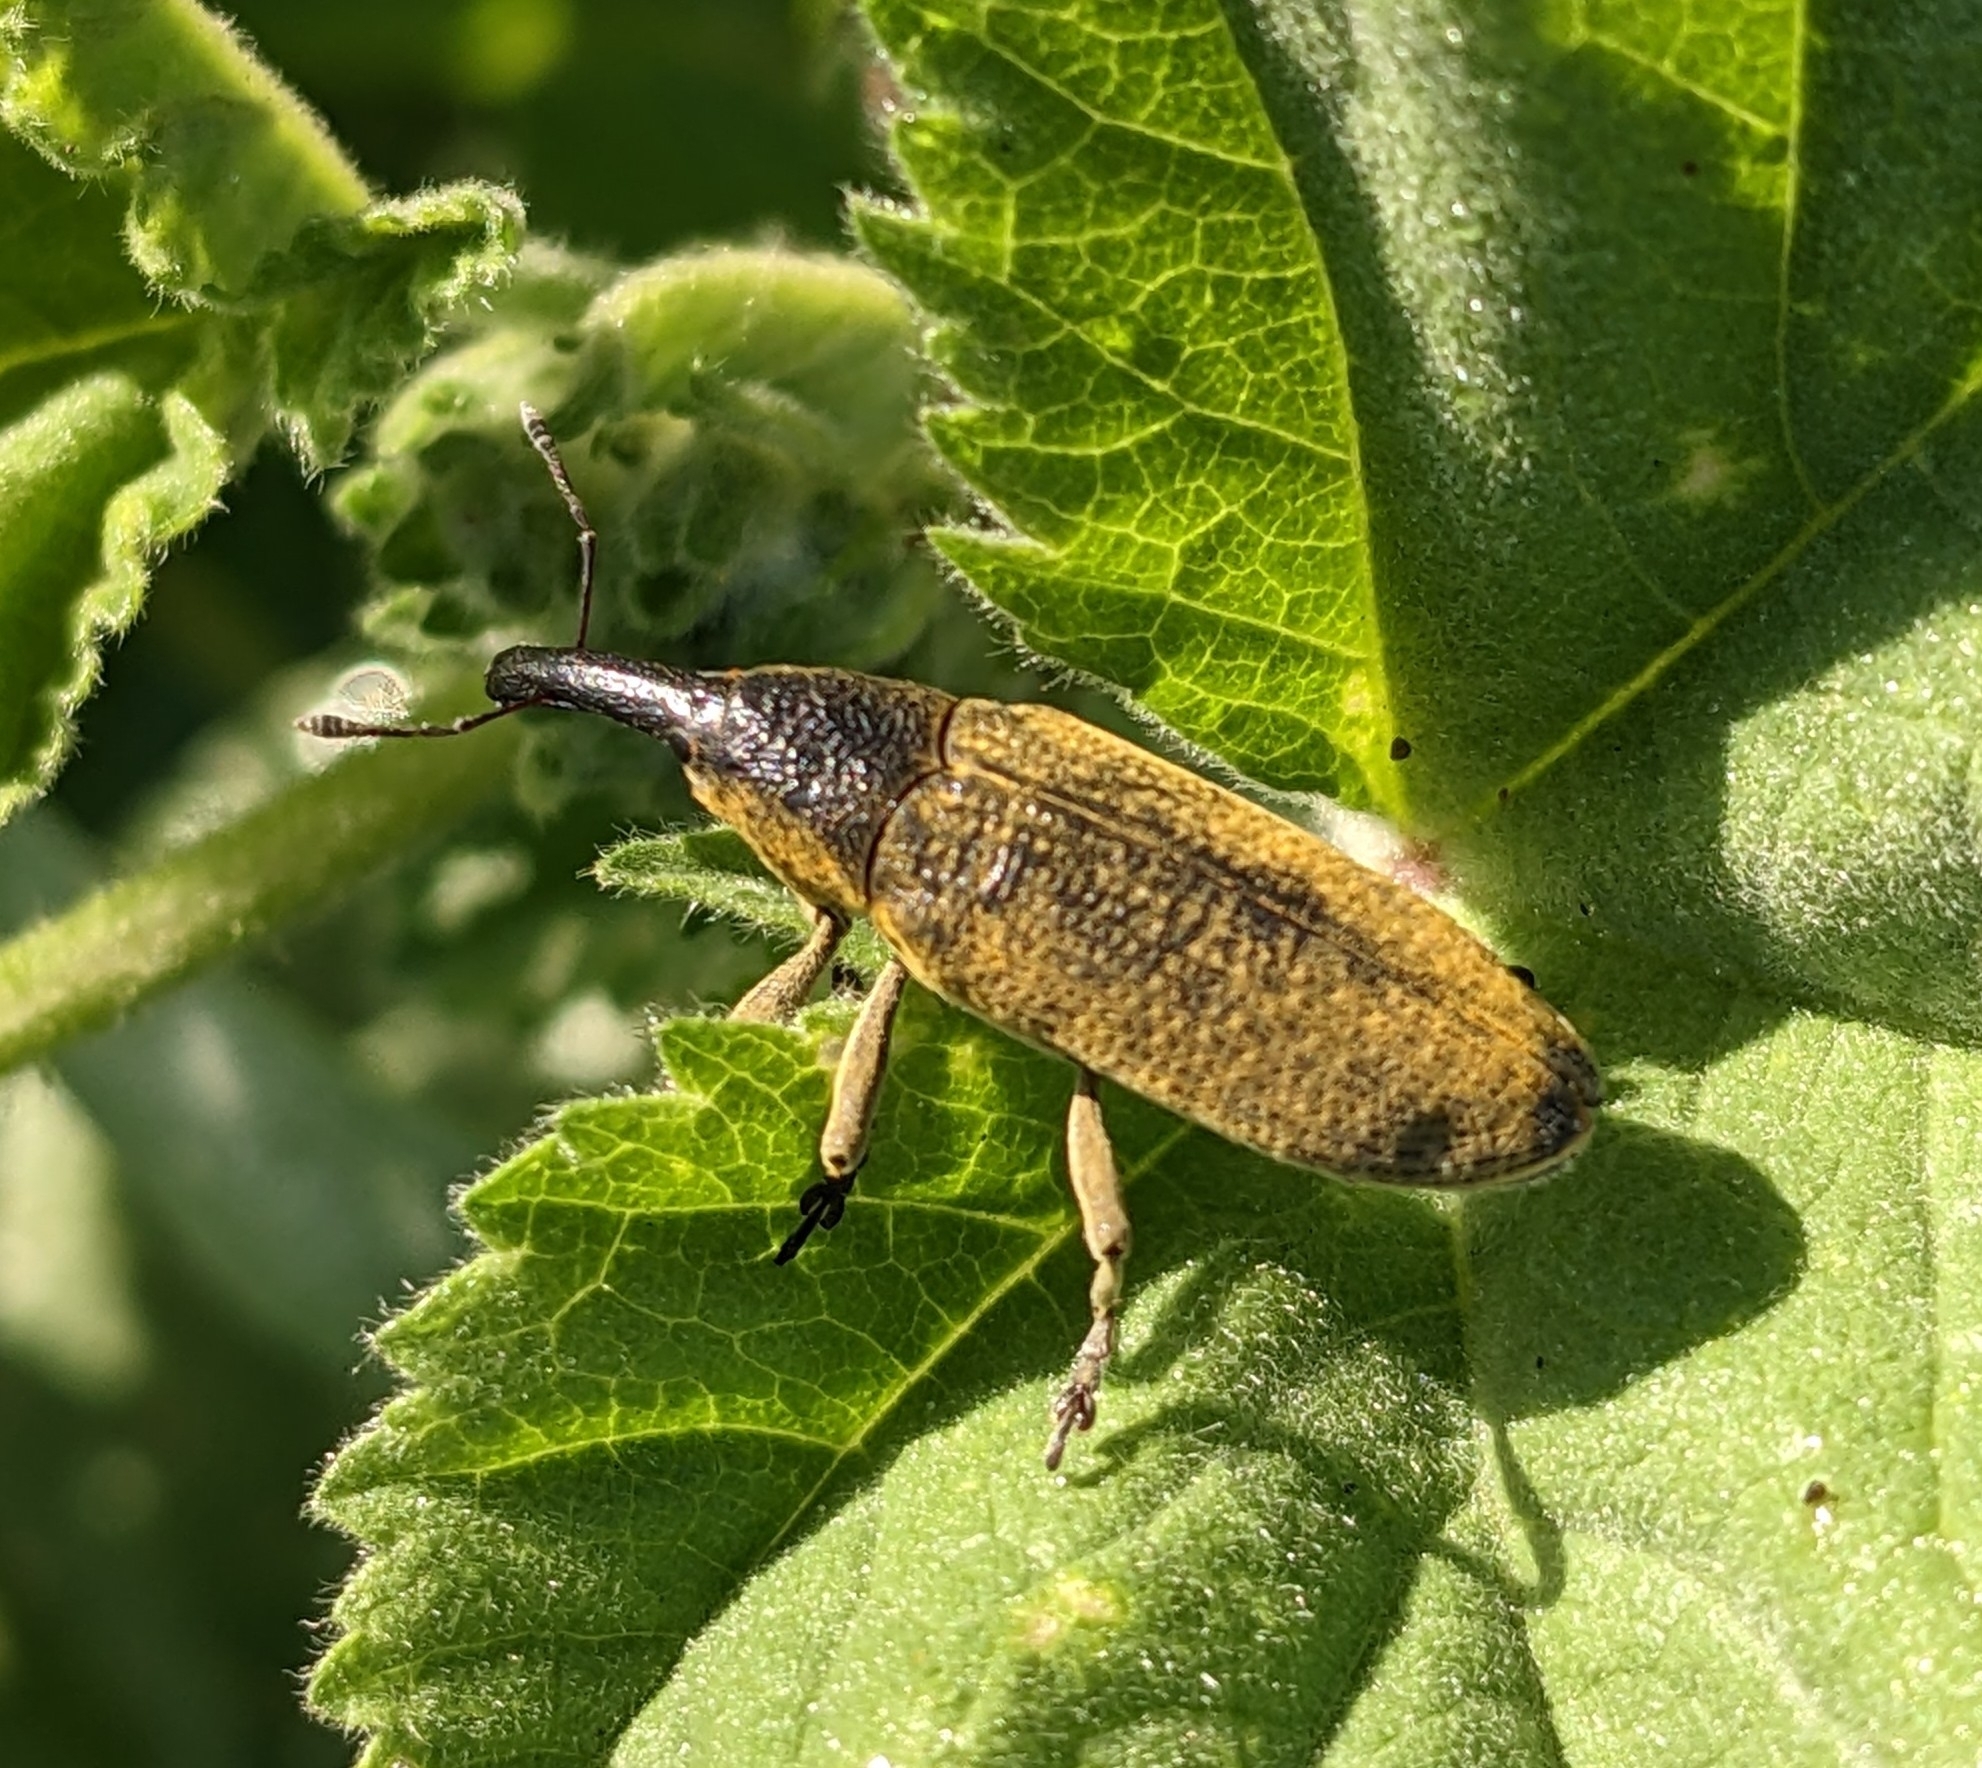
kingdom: Animalia
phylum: Arthropoda
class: Insecta
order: Coleoptera
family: Curculionidae
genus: Lixus
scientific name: Lixus pulverulentus
